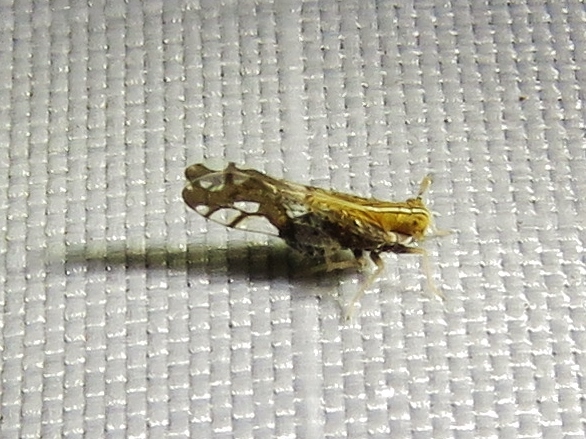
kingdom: Animalia
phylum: Arthropoda
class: Insecta
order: Hemiptera
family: Delphacidae
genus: Liburniella
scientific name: Liburniella ornata
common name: Ornate planthopper
